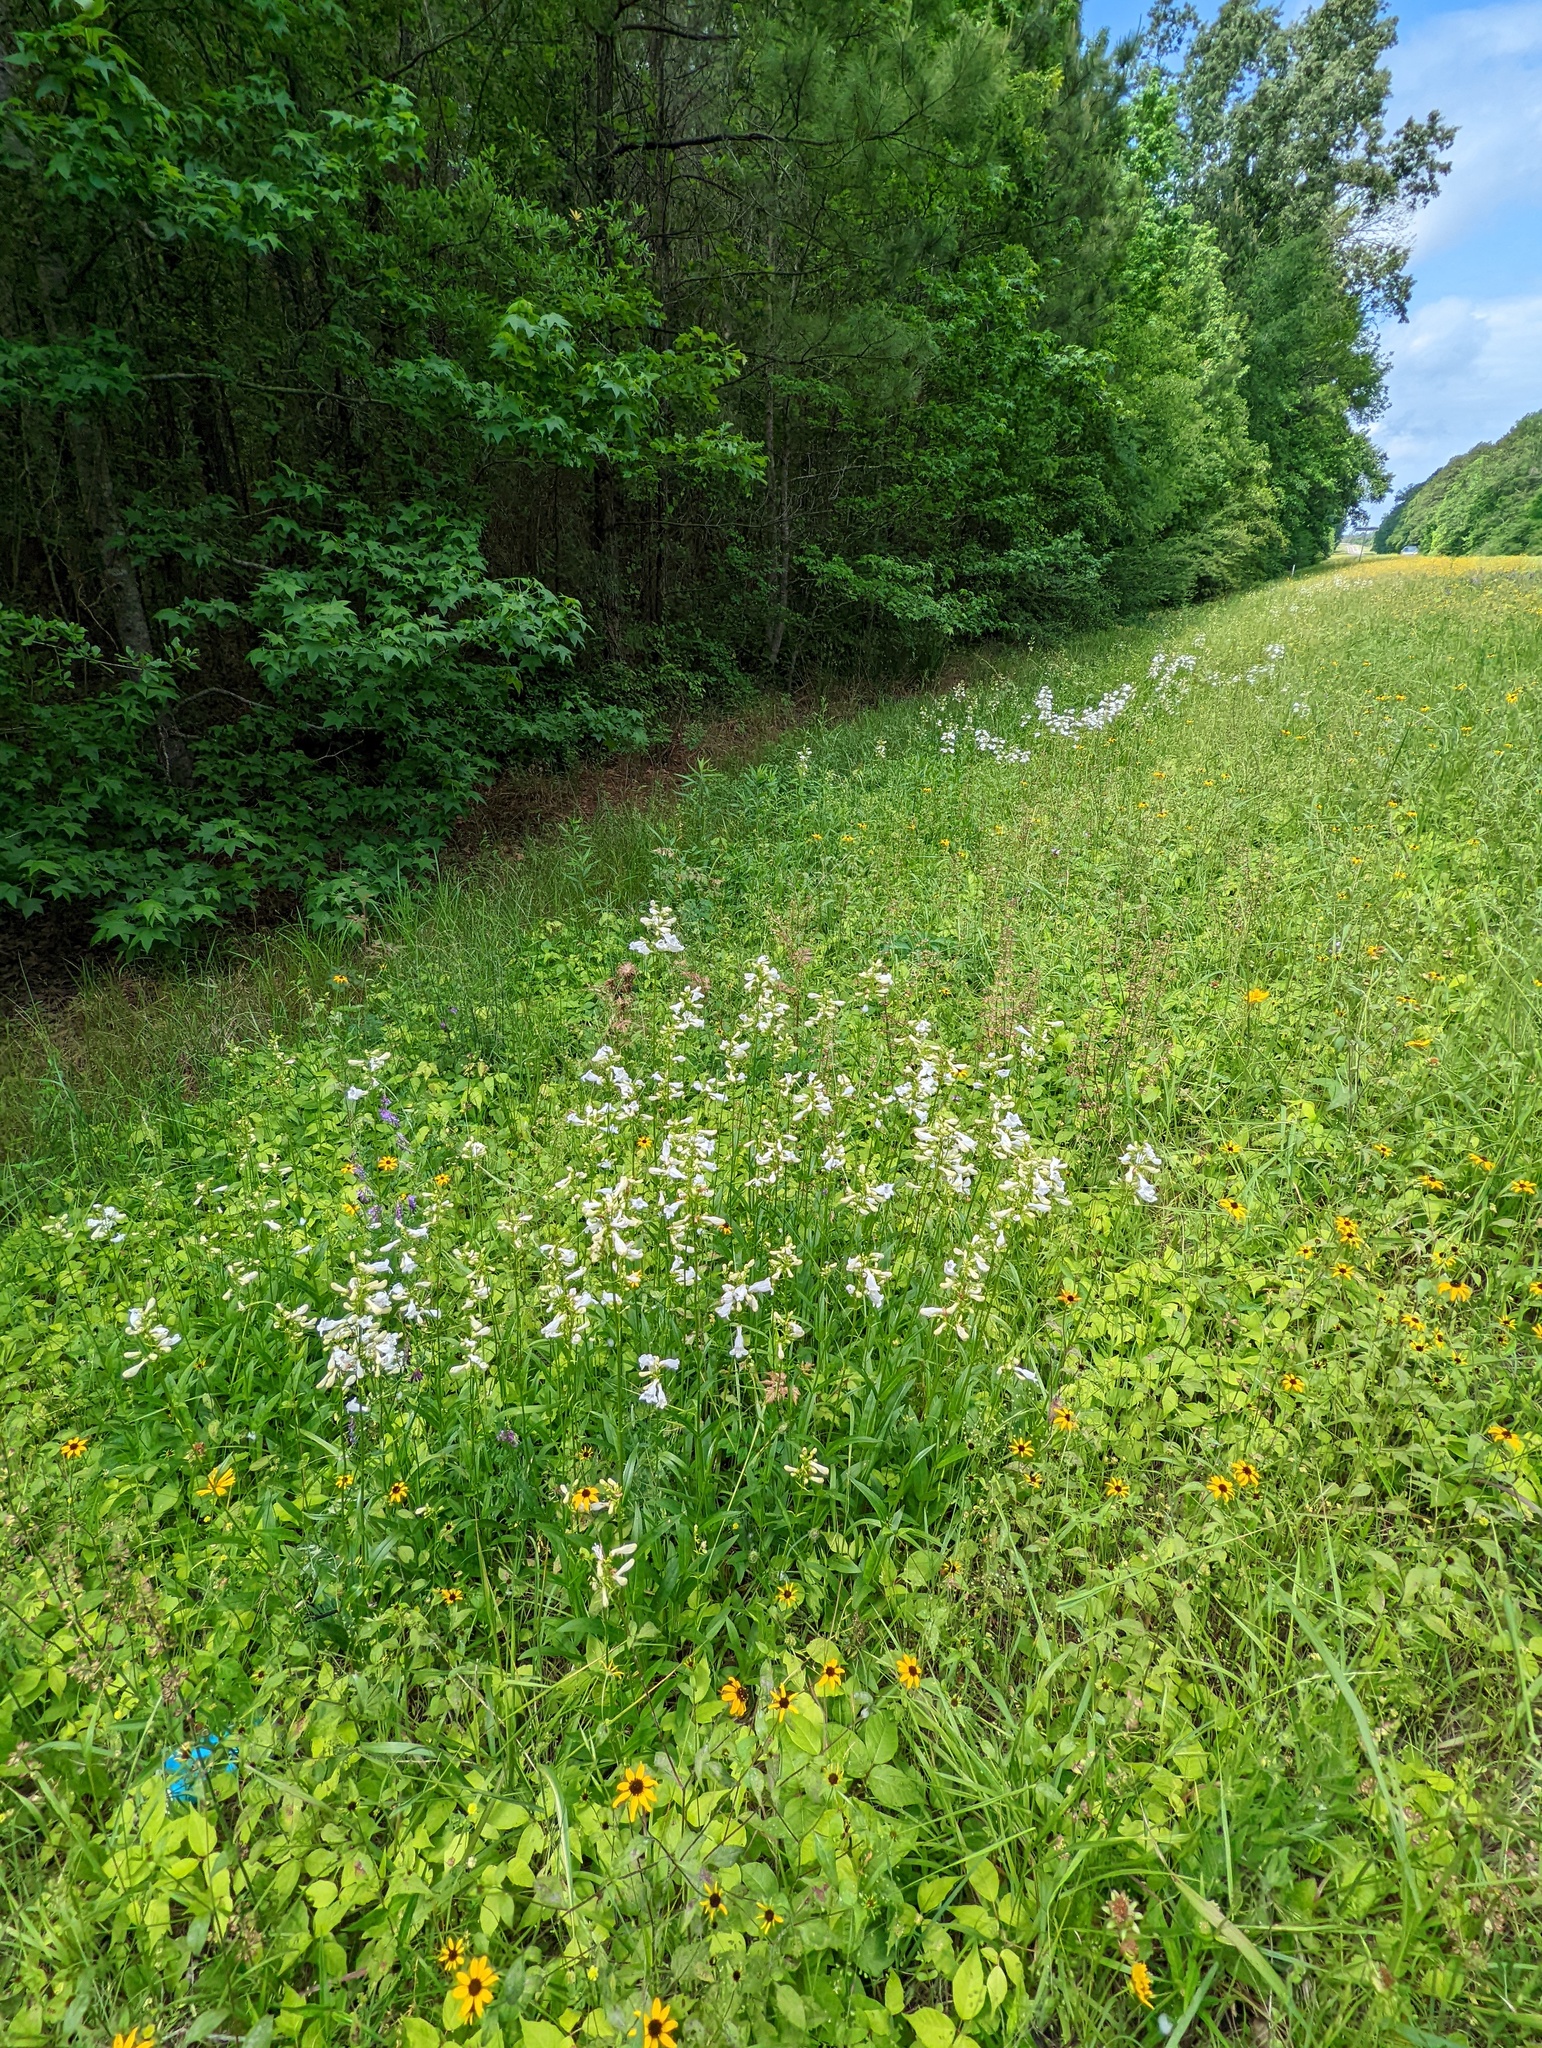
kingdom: Plantae
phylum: Tracheophyta
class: Magnoliopsida
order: Lamiales
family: Plantaginaceae
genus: Penstemon
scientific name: Penstemon digitalis
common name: Foxglove beardtongue
